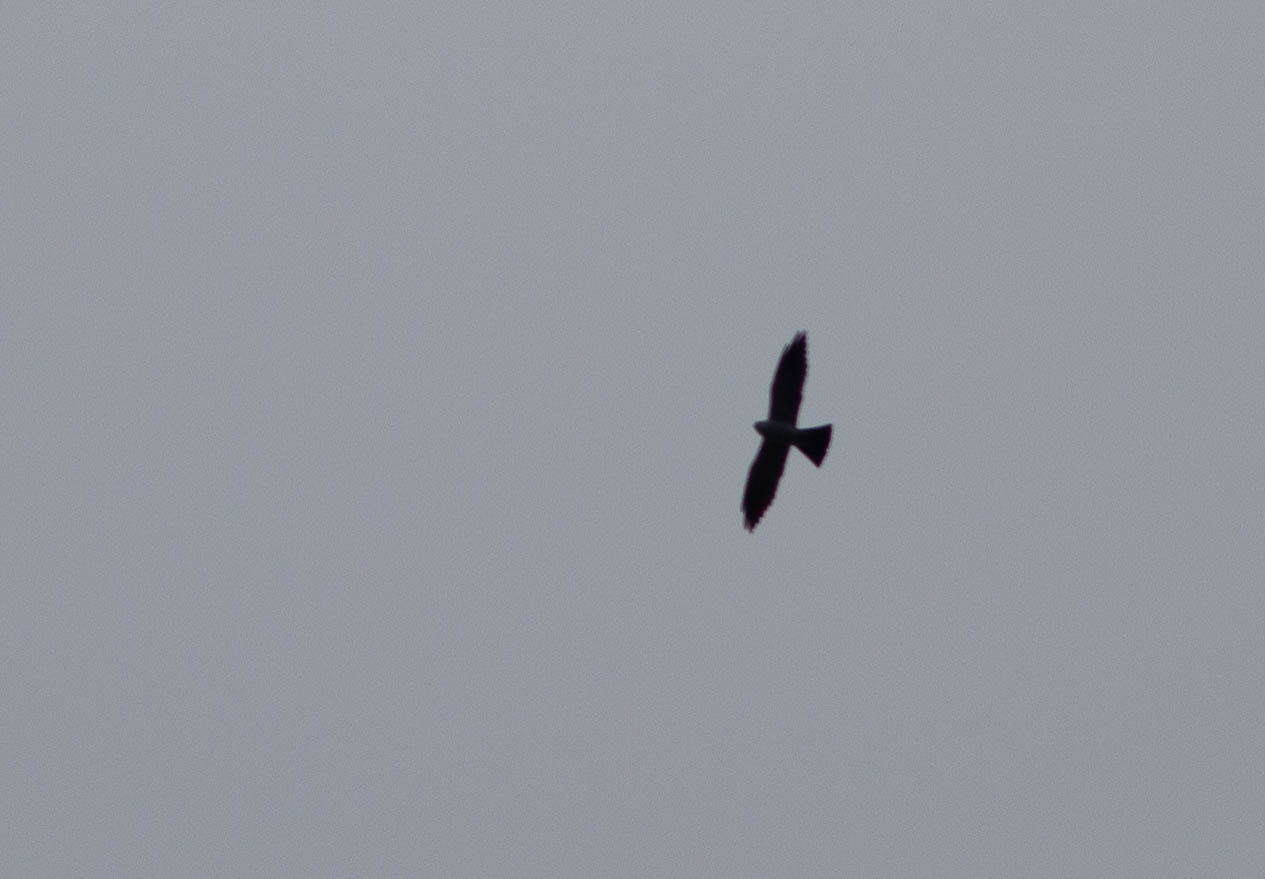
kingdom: Animalia
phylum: Chordata
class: Aves
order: Accipitriformes
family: Accipitridae
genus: Ictinia
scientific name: Ictinia mississippiensis
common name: Mississippi kite
